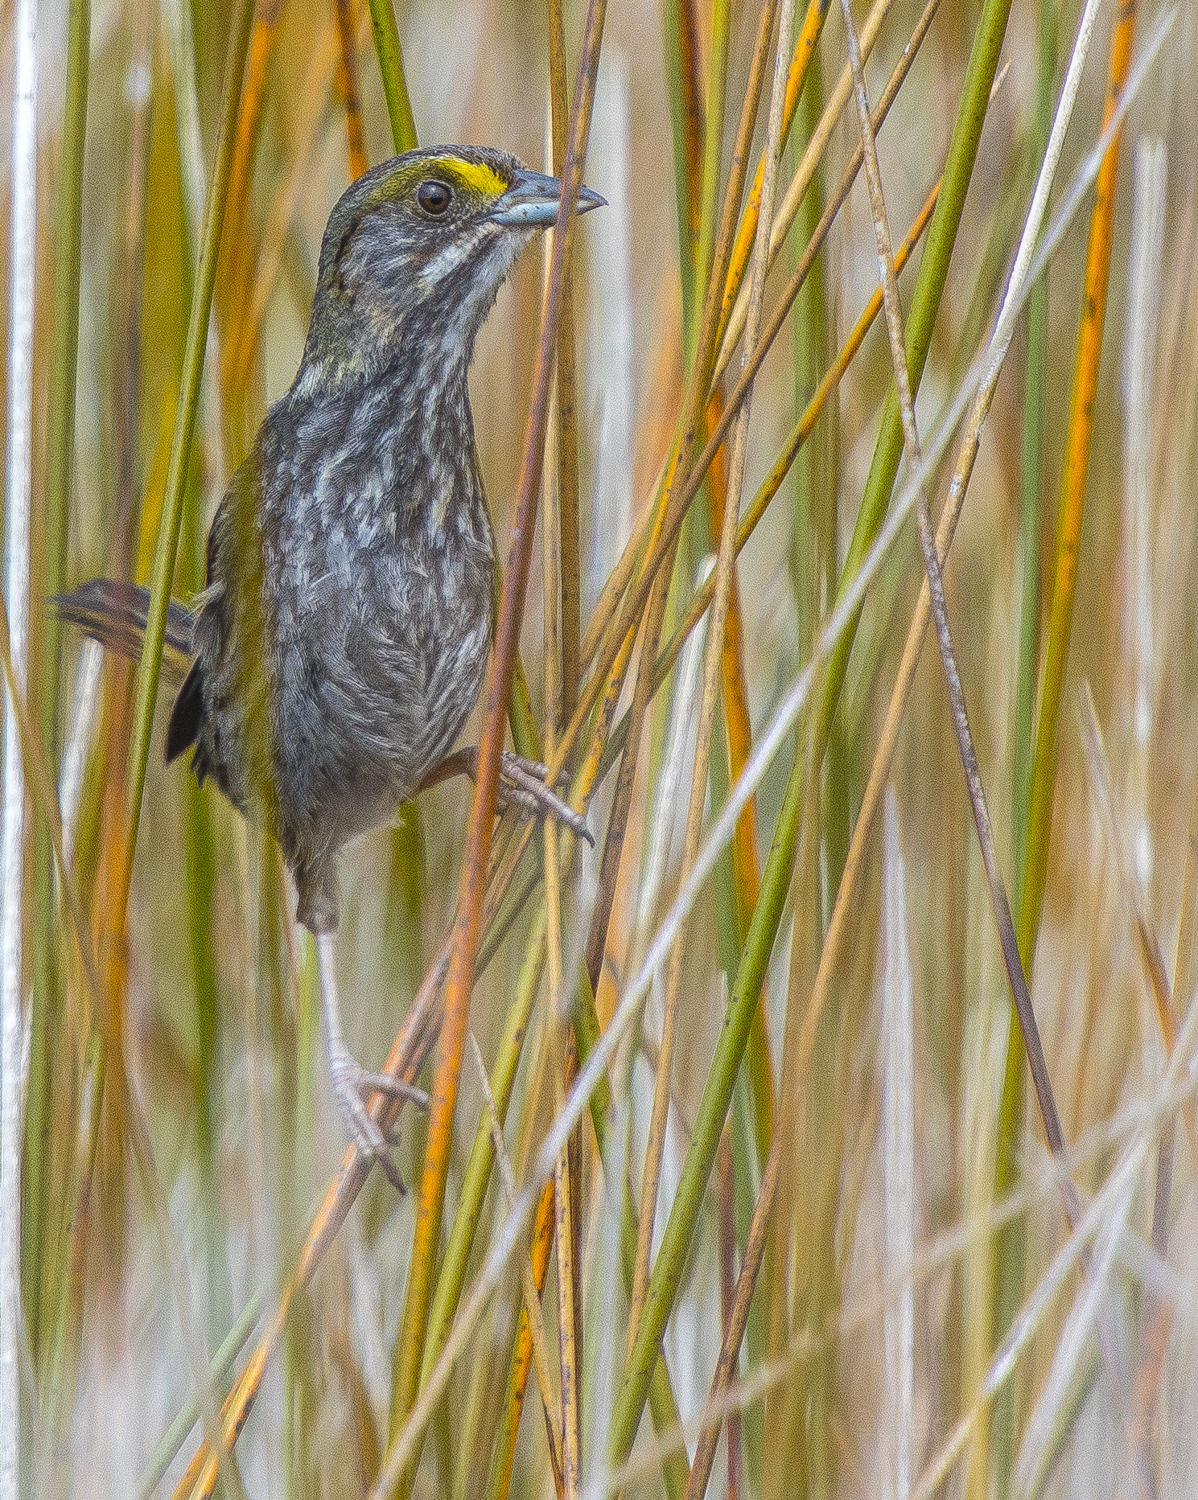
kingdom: Animalia
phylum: Chordata
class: Aves
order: Passeriformes
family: Passerellidae
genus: Ammospiza
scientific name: Ammospiza maritima
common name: Seaside sparrow
